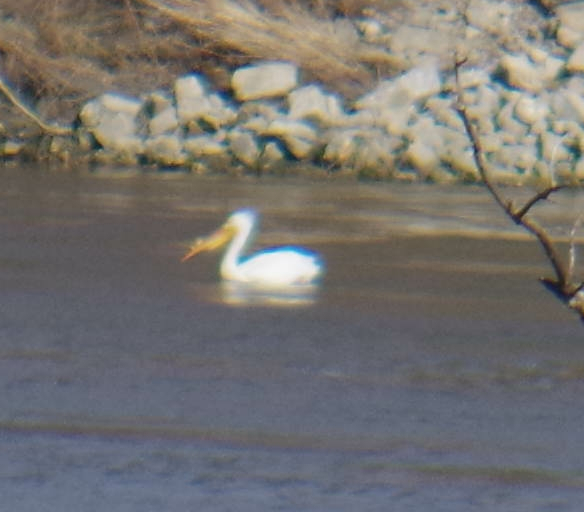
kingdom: Animalia
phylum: Chordata
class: Aves
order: Pelecaniformes
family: Pelecanidae
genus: Pelecanus
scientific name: Pelecanus erythrorhynchos
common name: American white pelican
